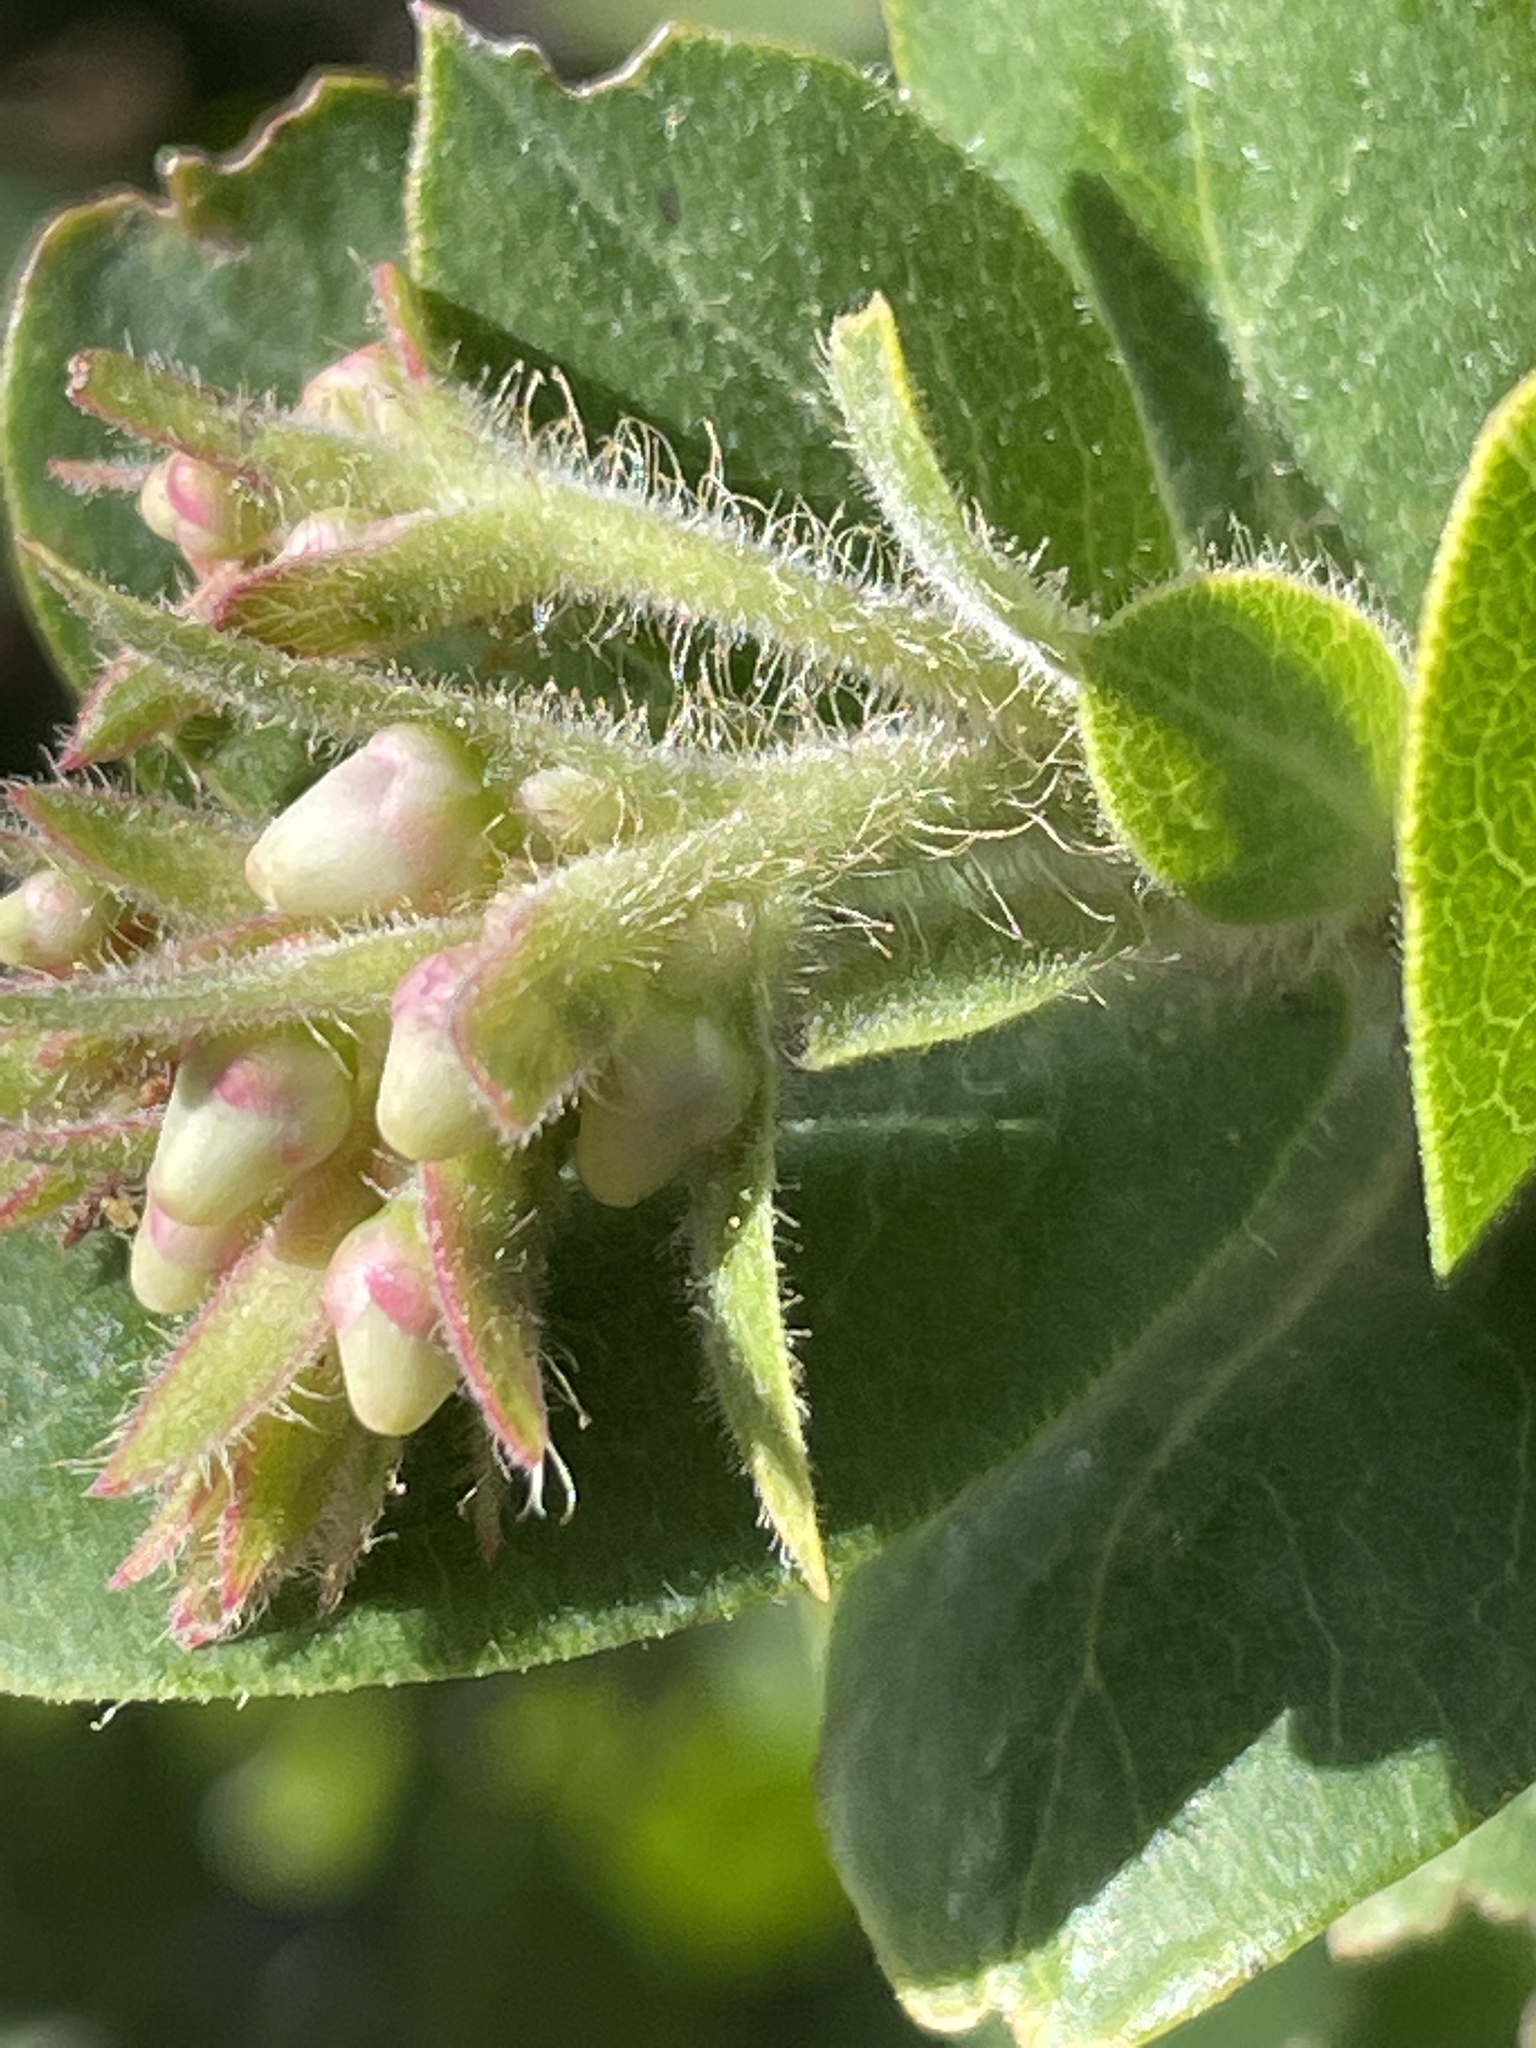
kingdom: Plantae
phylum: Tracheophyta
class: Magnoliopsida
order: Ericales
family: Ericaceae
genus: Arctostaphylos
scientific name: Arctostaphylos regismontana
